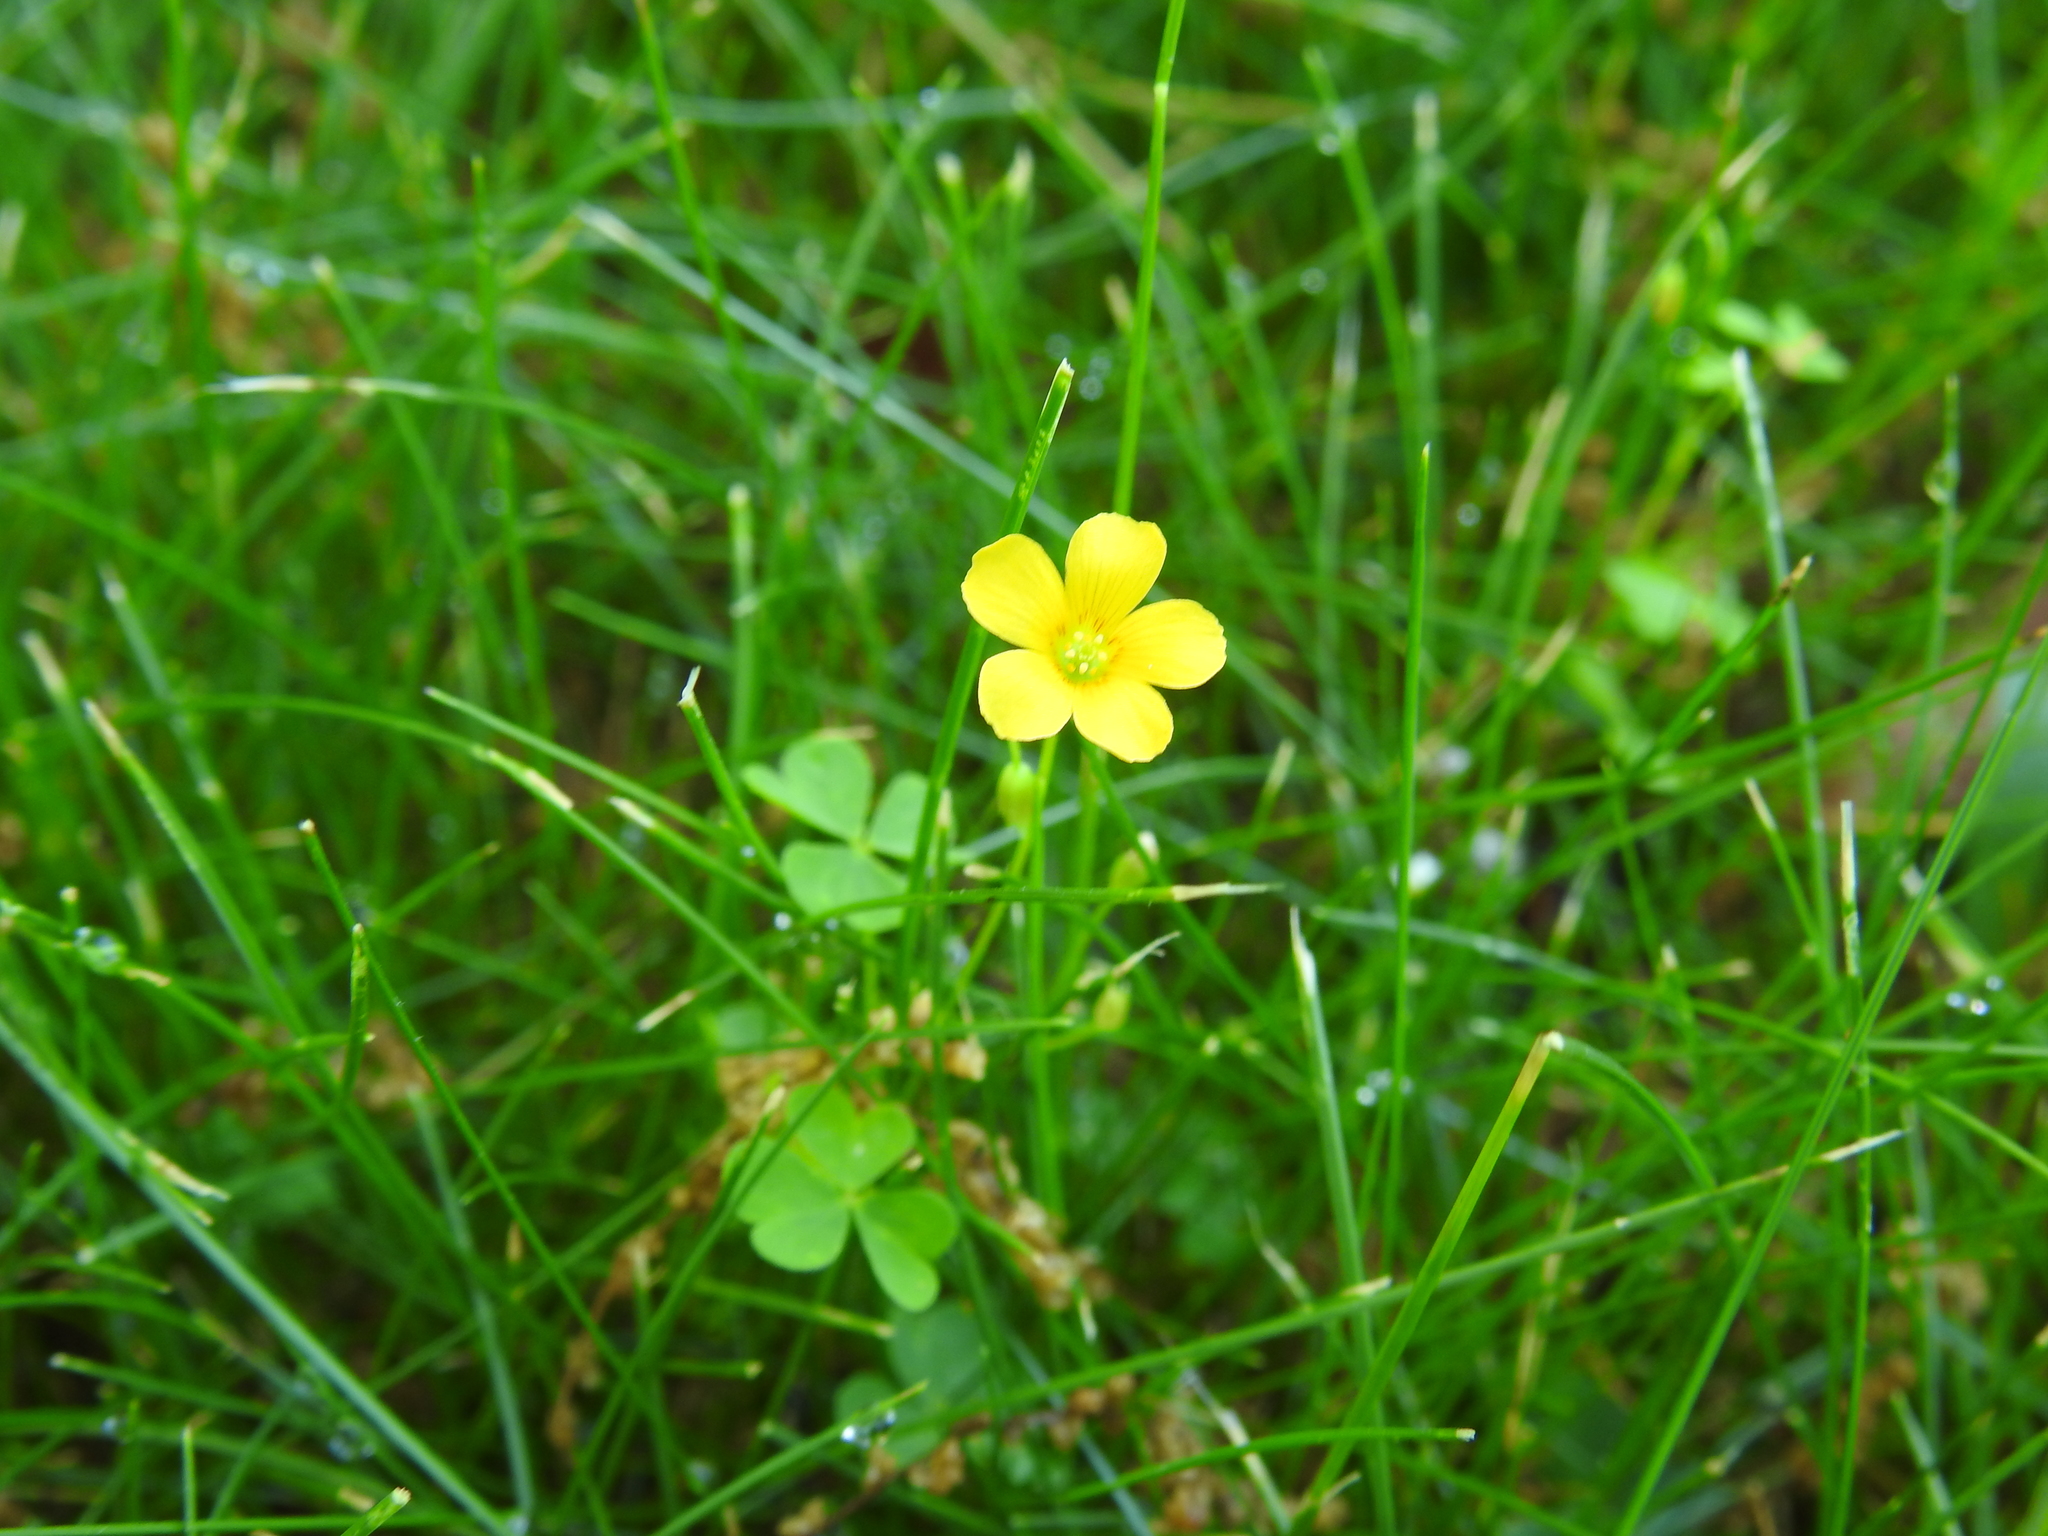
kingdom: Plantae
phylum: Tracheophyta
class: Magnoliopsida
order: Oxalidales
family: Oxalidaceae
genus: Oxalis
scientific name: Oxalis stricta
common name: Upright yellow-sorrel
